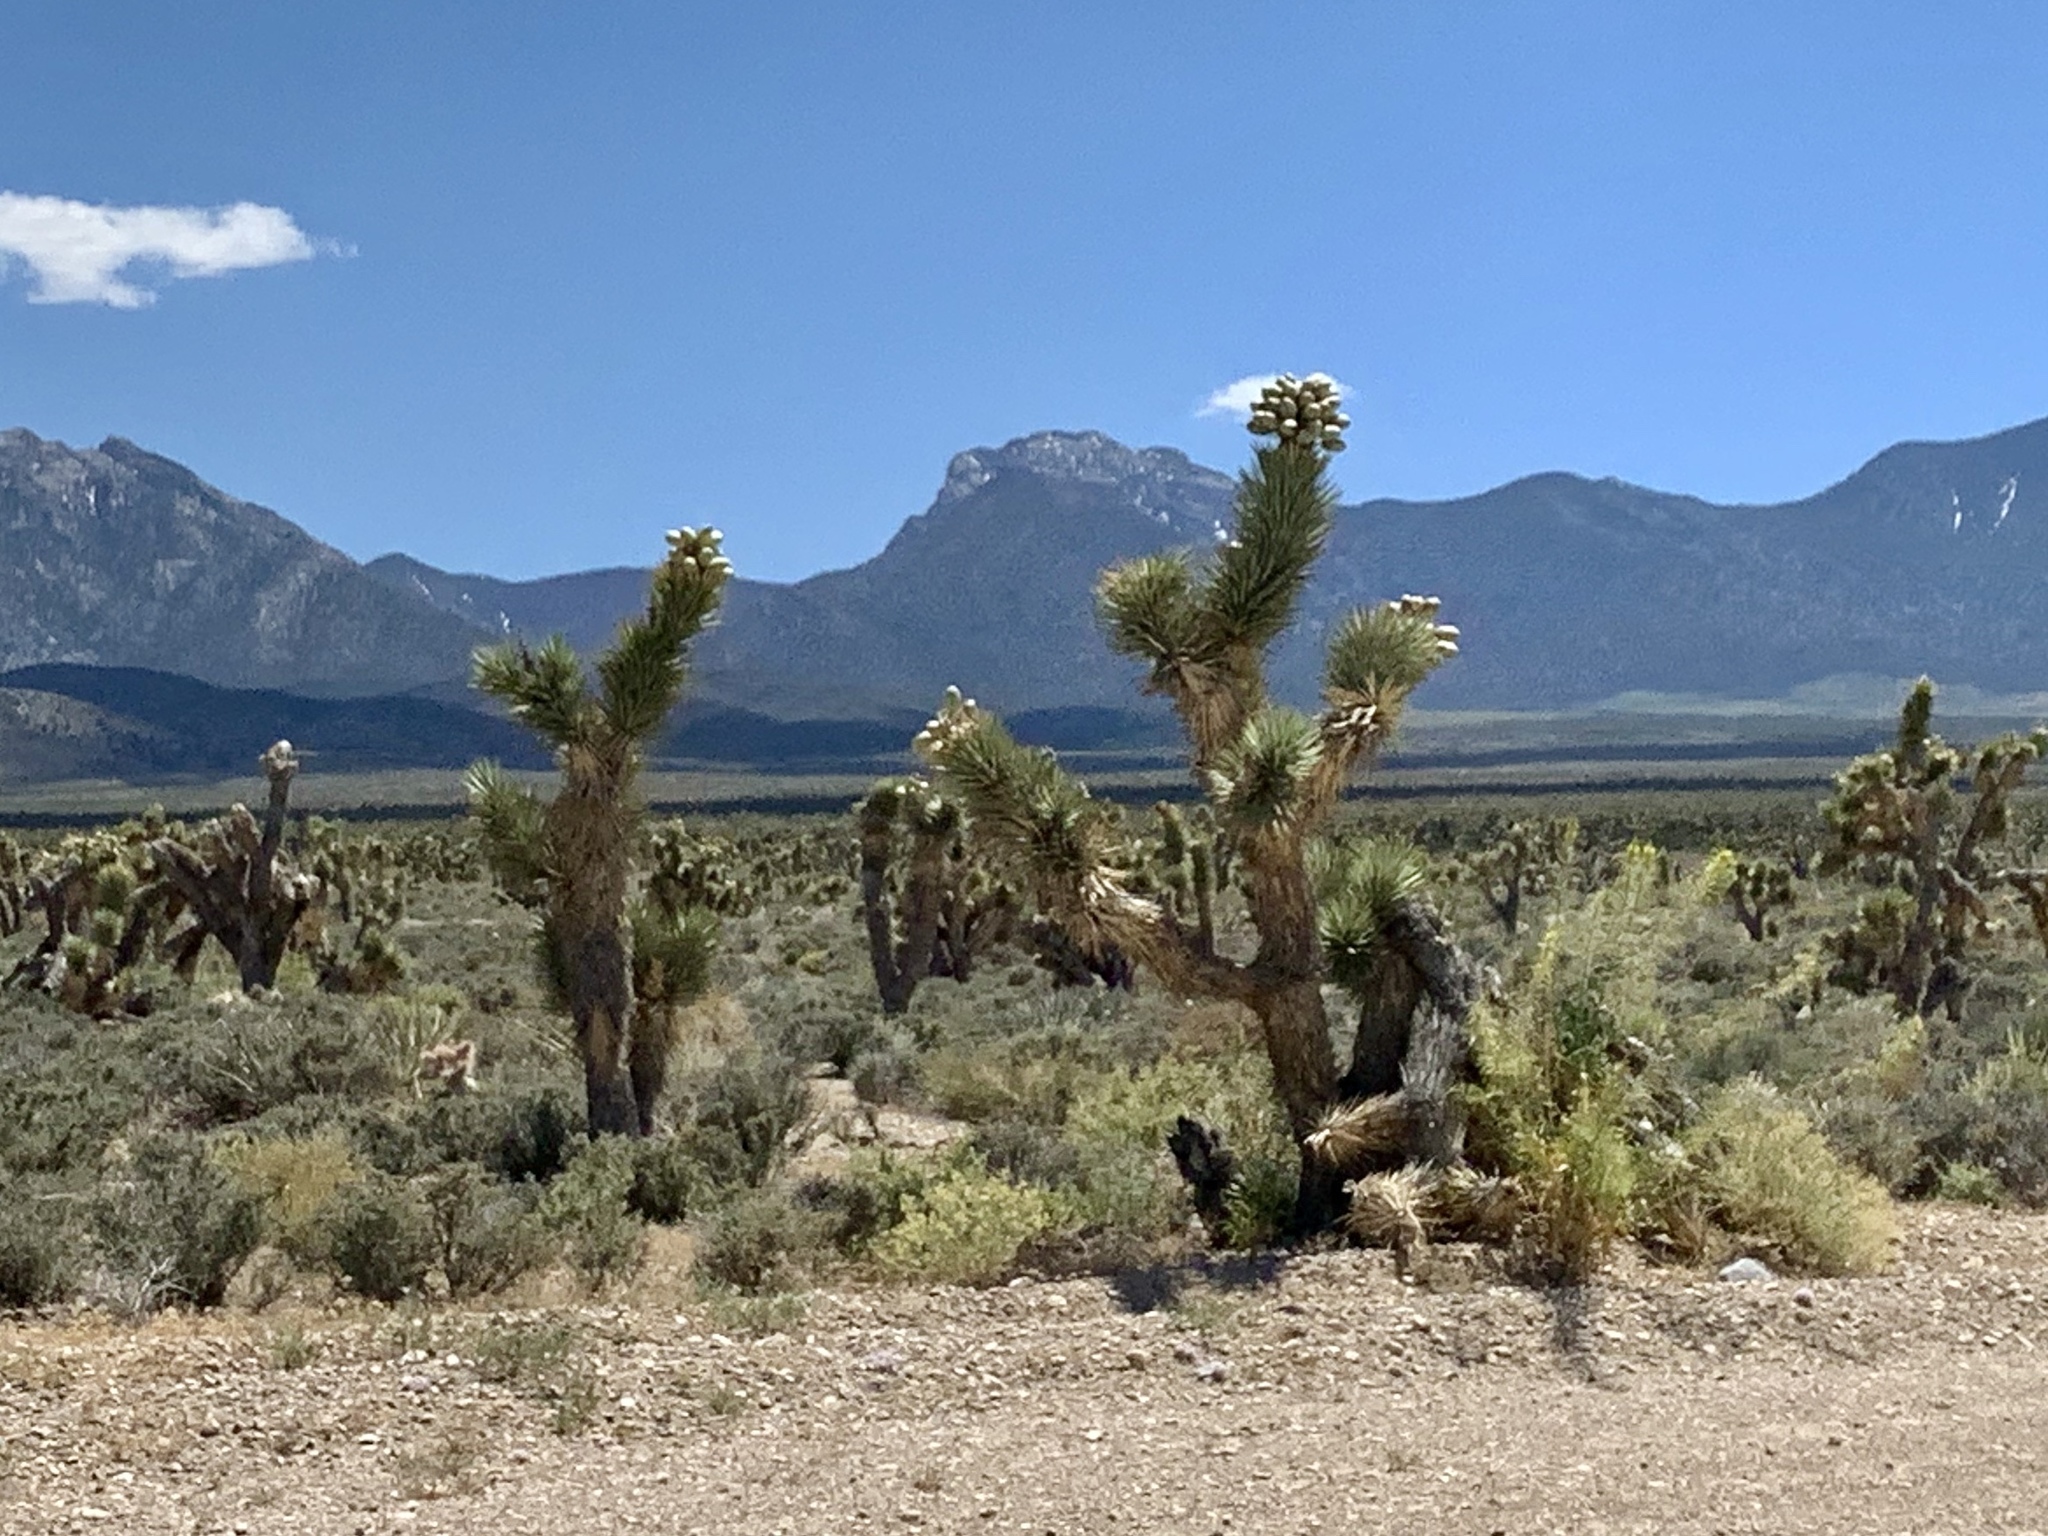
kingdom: Plantae
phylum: Tracheophyta
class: Liliopsida
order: Asparagales
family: Asparagaceae
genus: Yucca
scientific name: Yucca brevifolia
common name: Joshua tree
